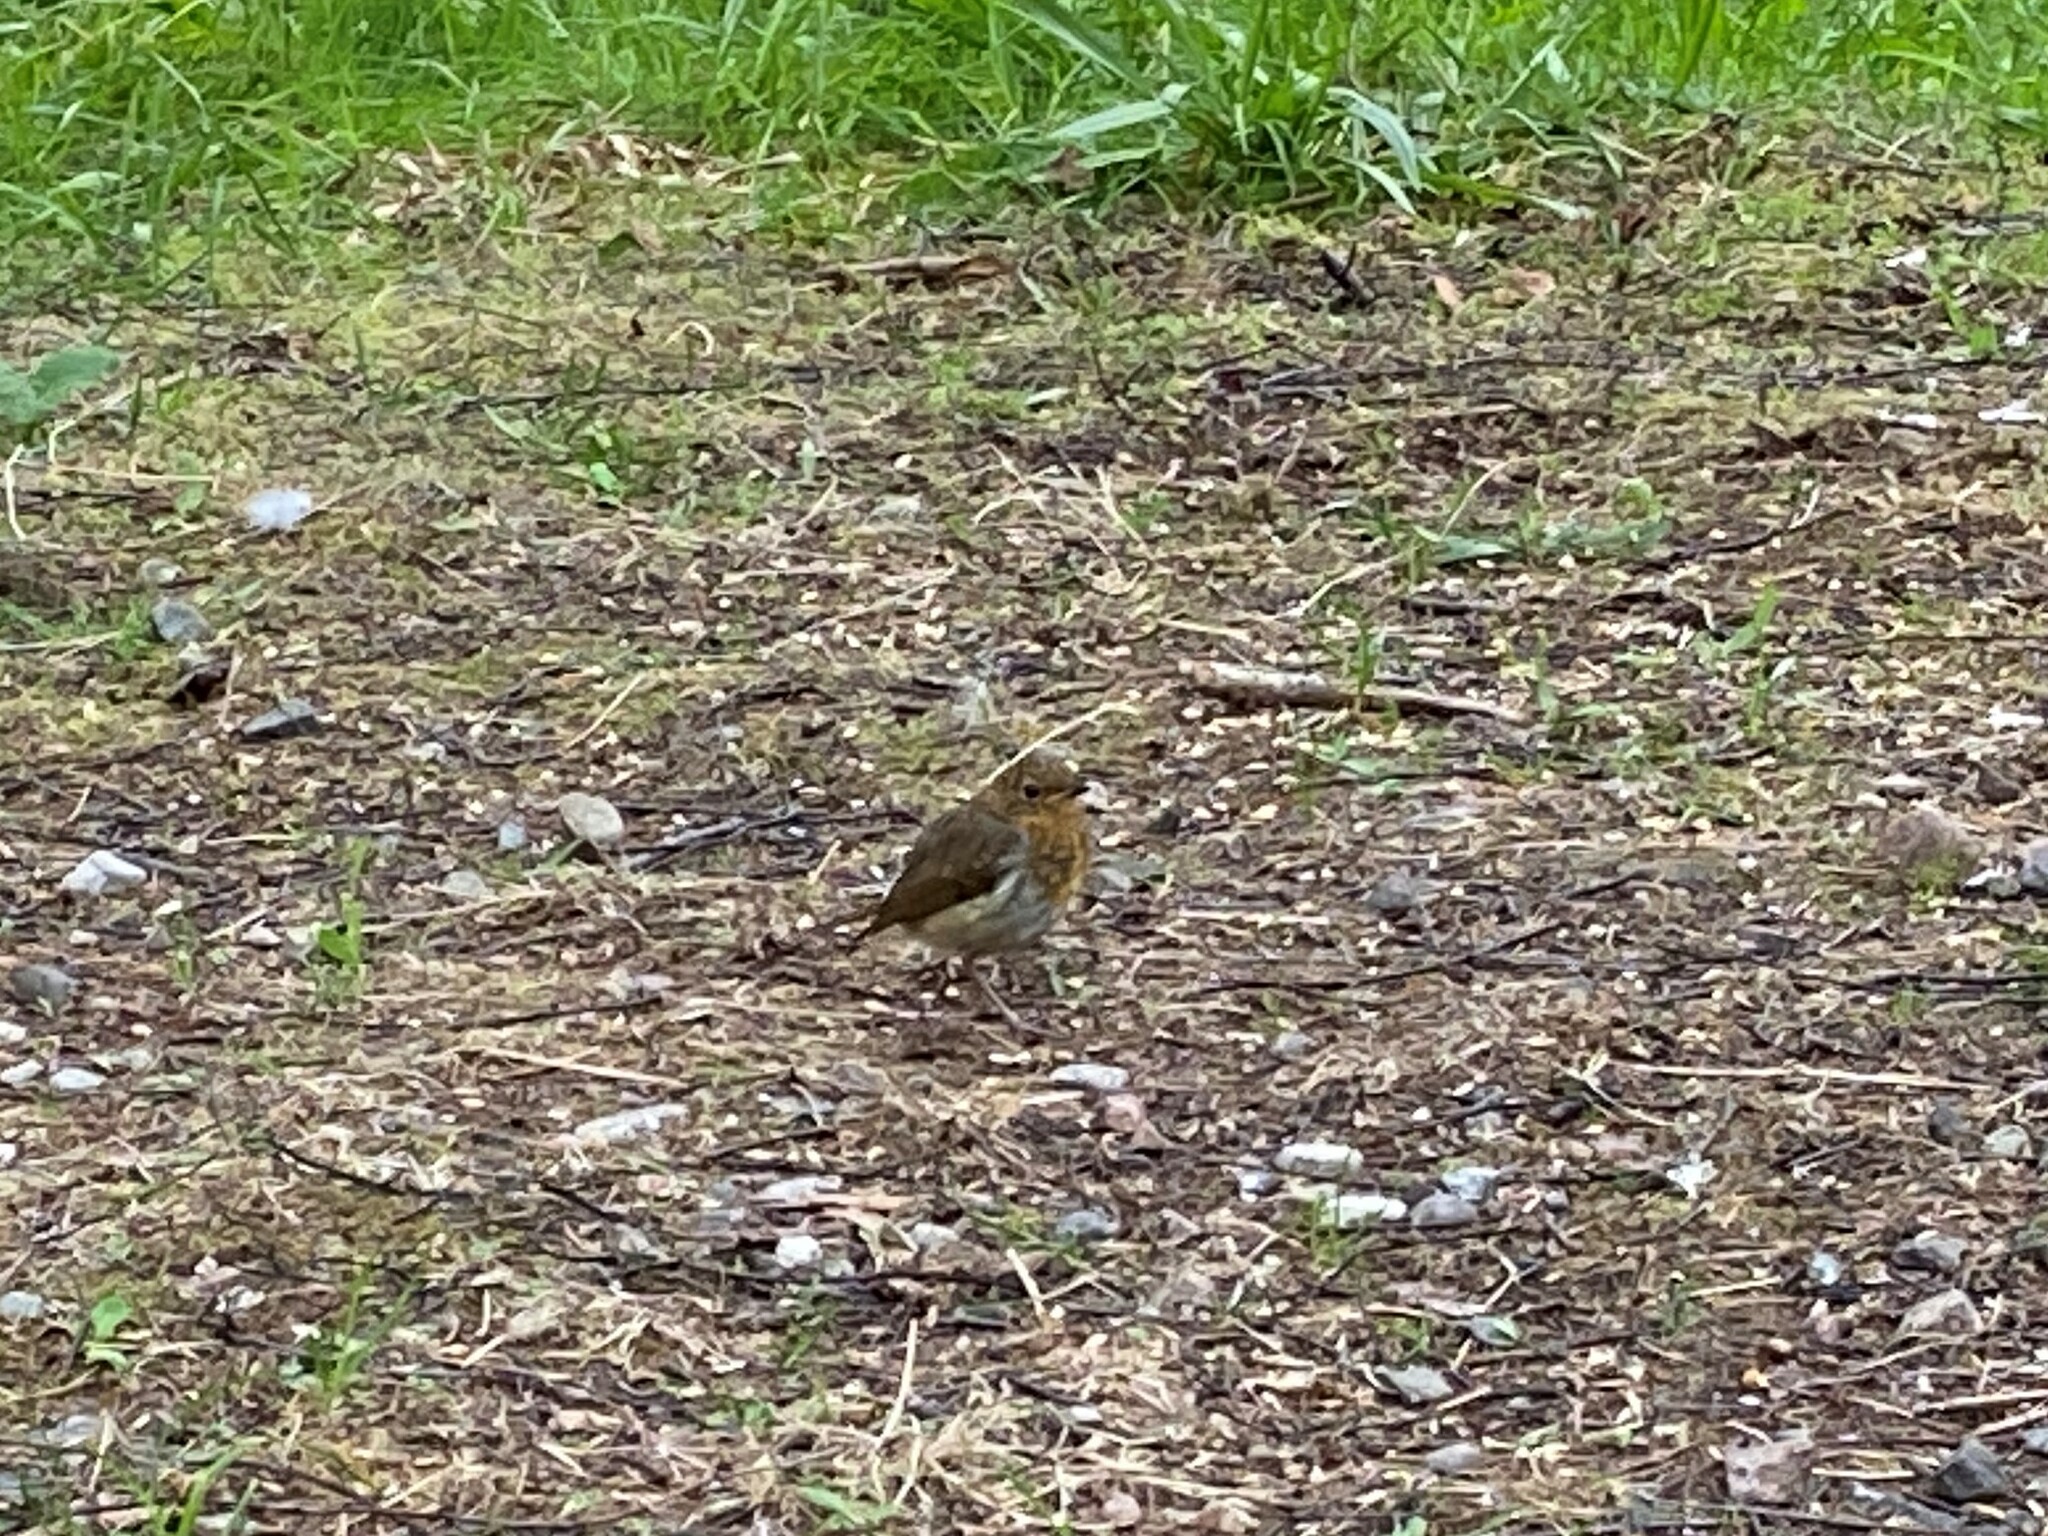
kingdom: Animalia
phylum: Chordata
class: Aves
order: Passeriformes
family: Muscicapidae
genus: Erithacus
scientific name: Erithacus rubecula
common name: European robin
